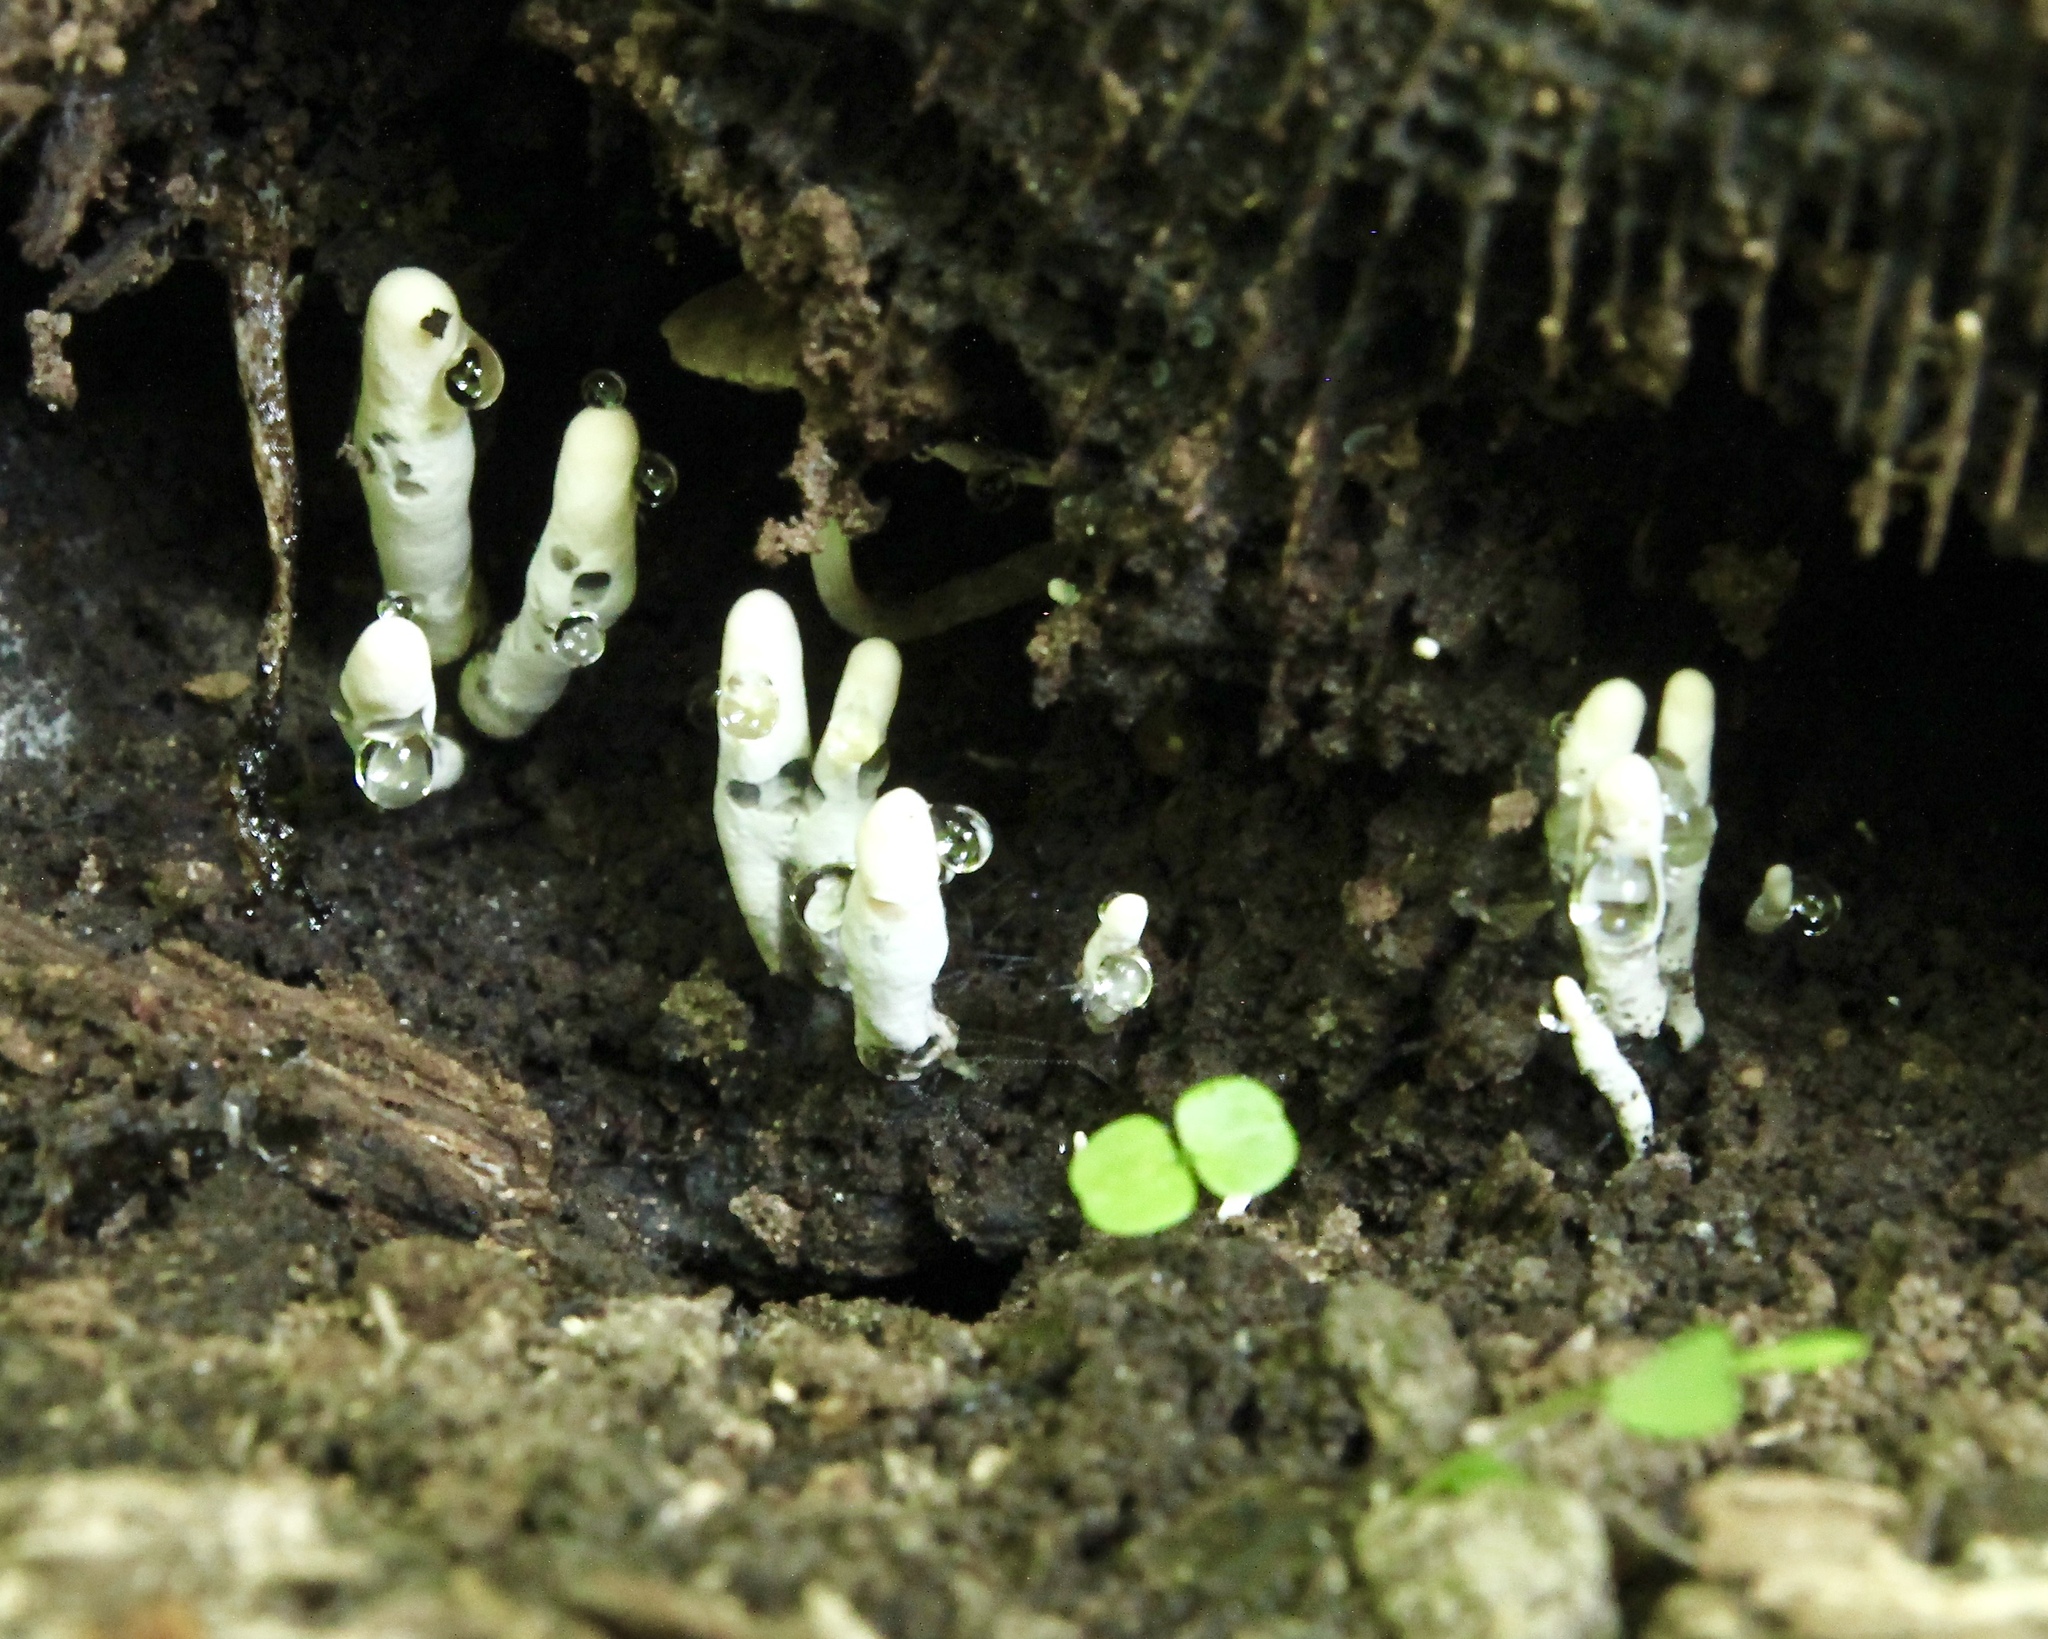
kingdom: Fungi
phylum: Ascomycota
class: Sordariomycetes
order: Xylariales
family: Xylariaceae
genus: Xylaria
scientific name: Xylaria hypoxylon
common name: Candle-snuff fungus
